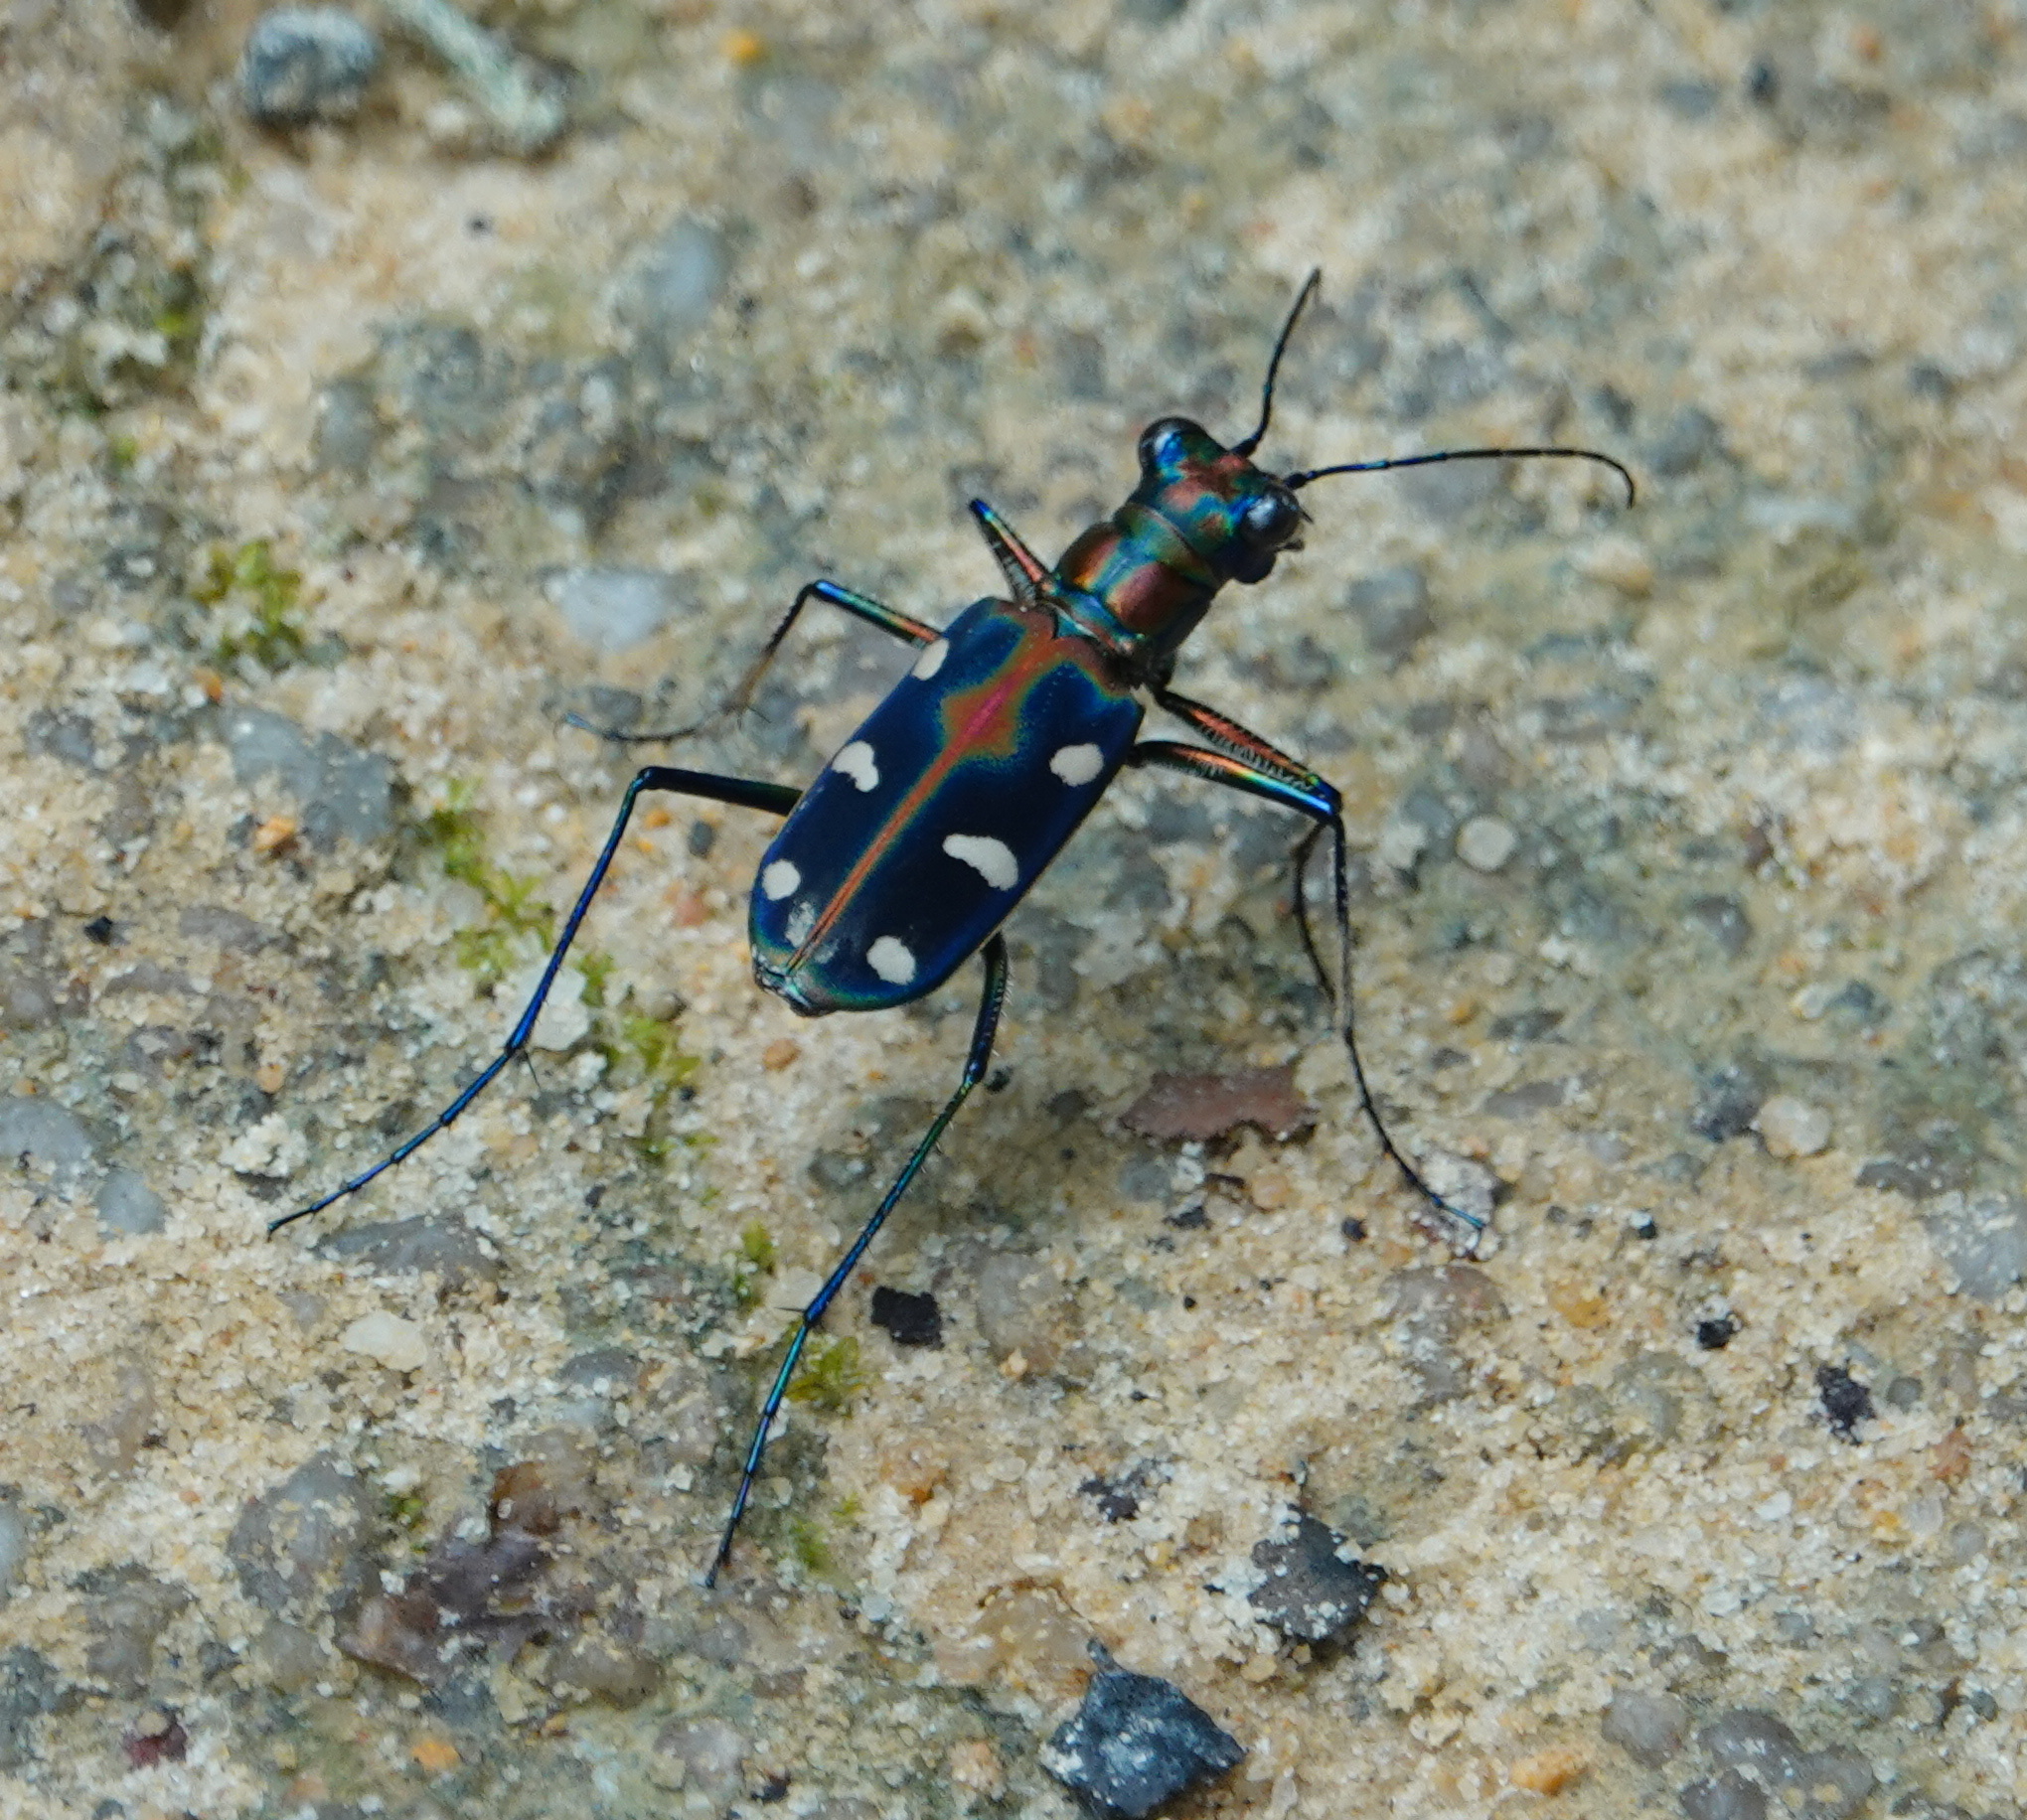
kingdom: Animalia
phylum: Arthropoda
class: Insecta
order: Coleoptera
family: Carabidae
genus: Cicindela
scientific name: Cicindela aurulenta
